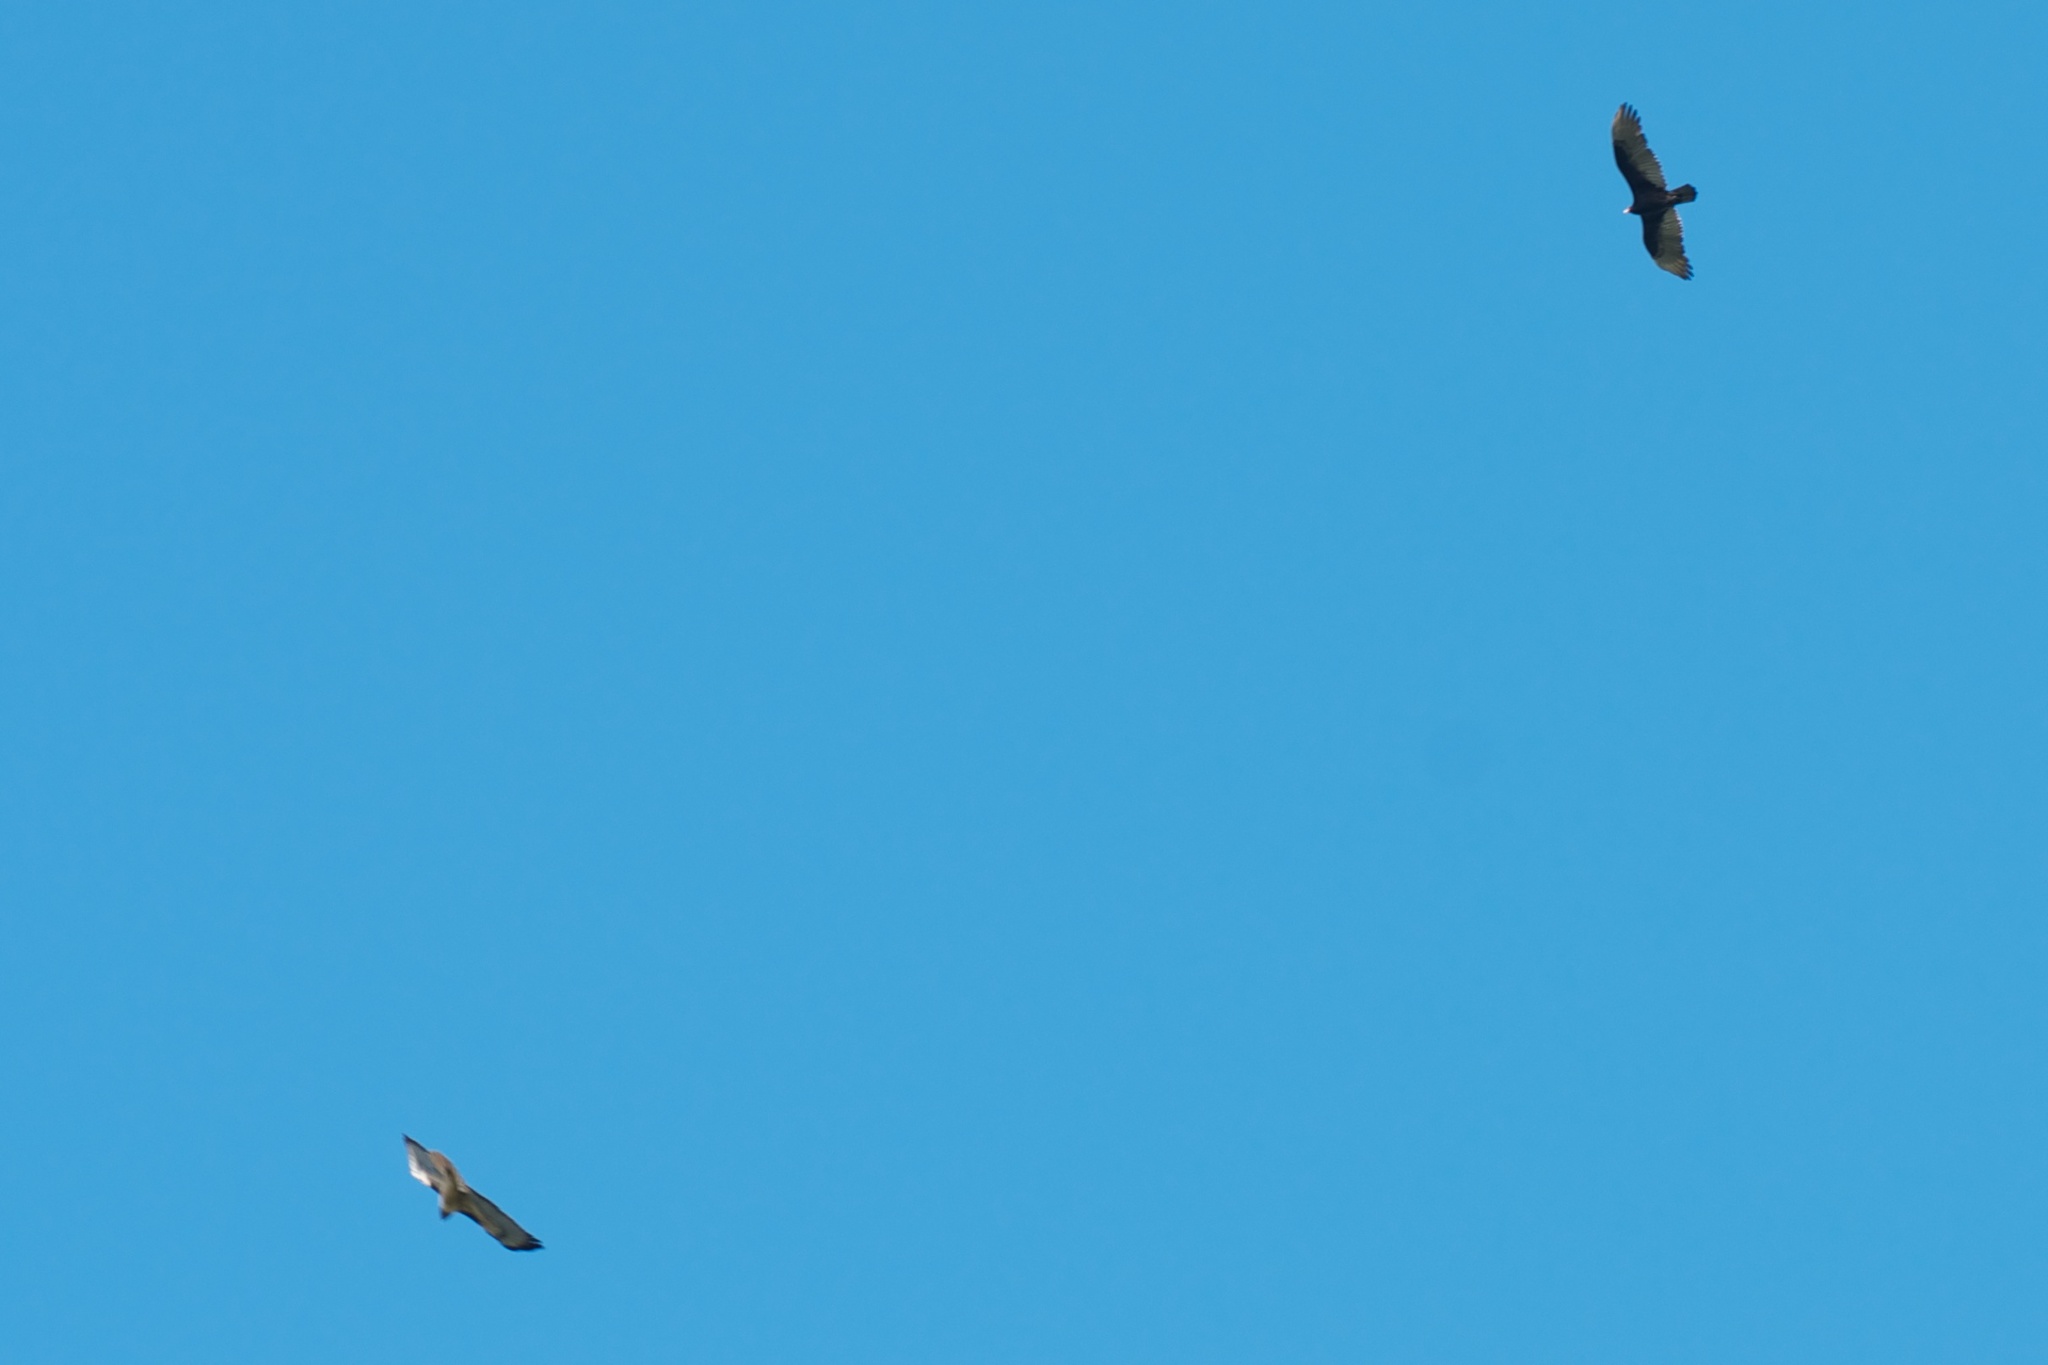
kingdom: Animalia
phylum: Chordata
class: Aves
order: Accipitriformes
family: Accipitridae
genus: Buteo
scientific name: Buteo jamaicensis
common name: Red-tailed hawk
